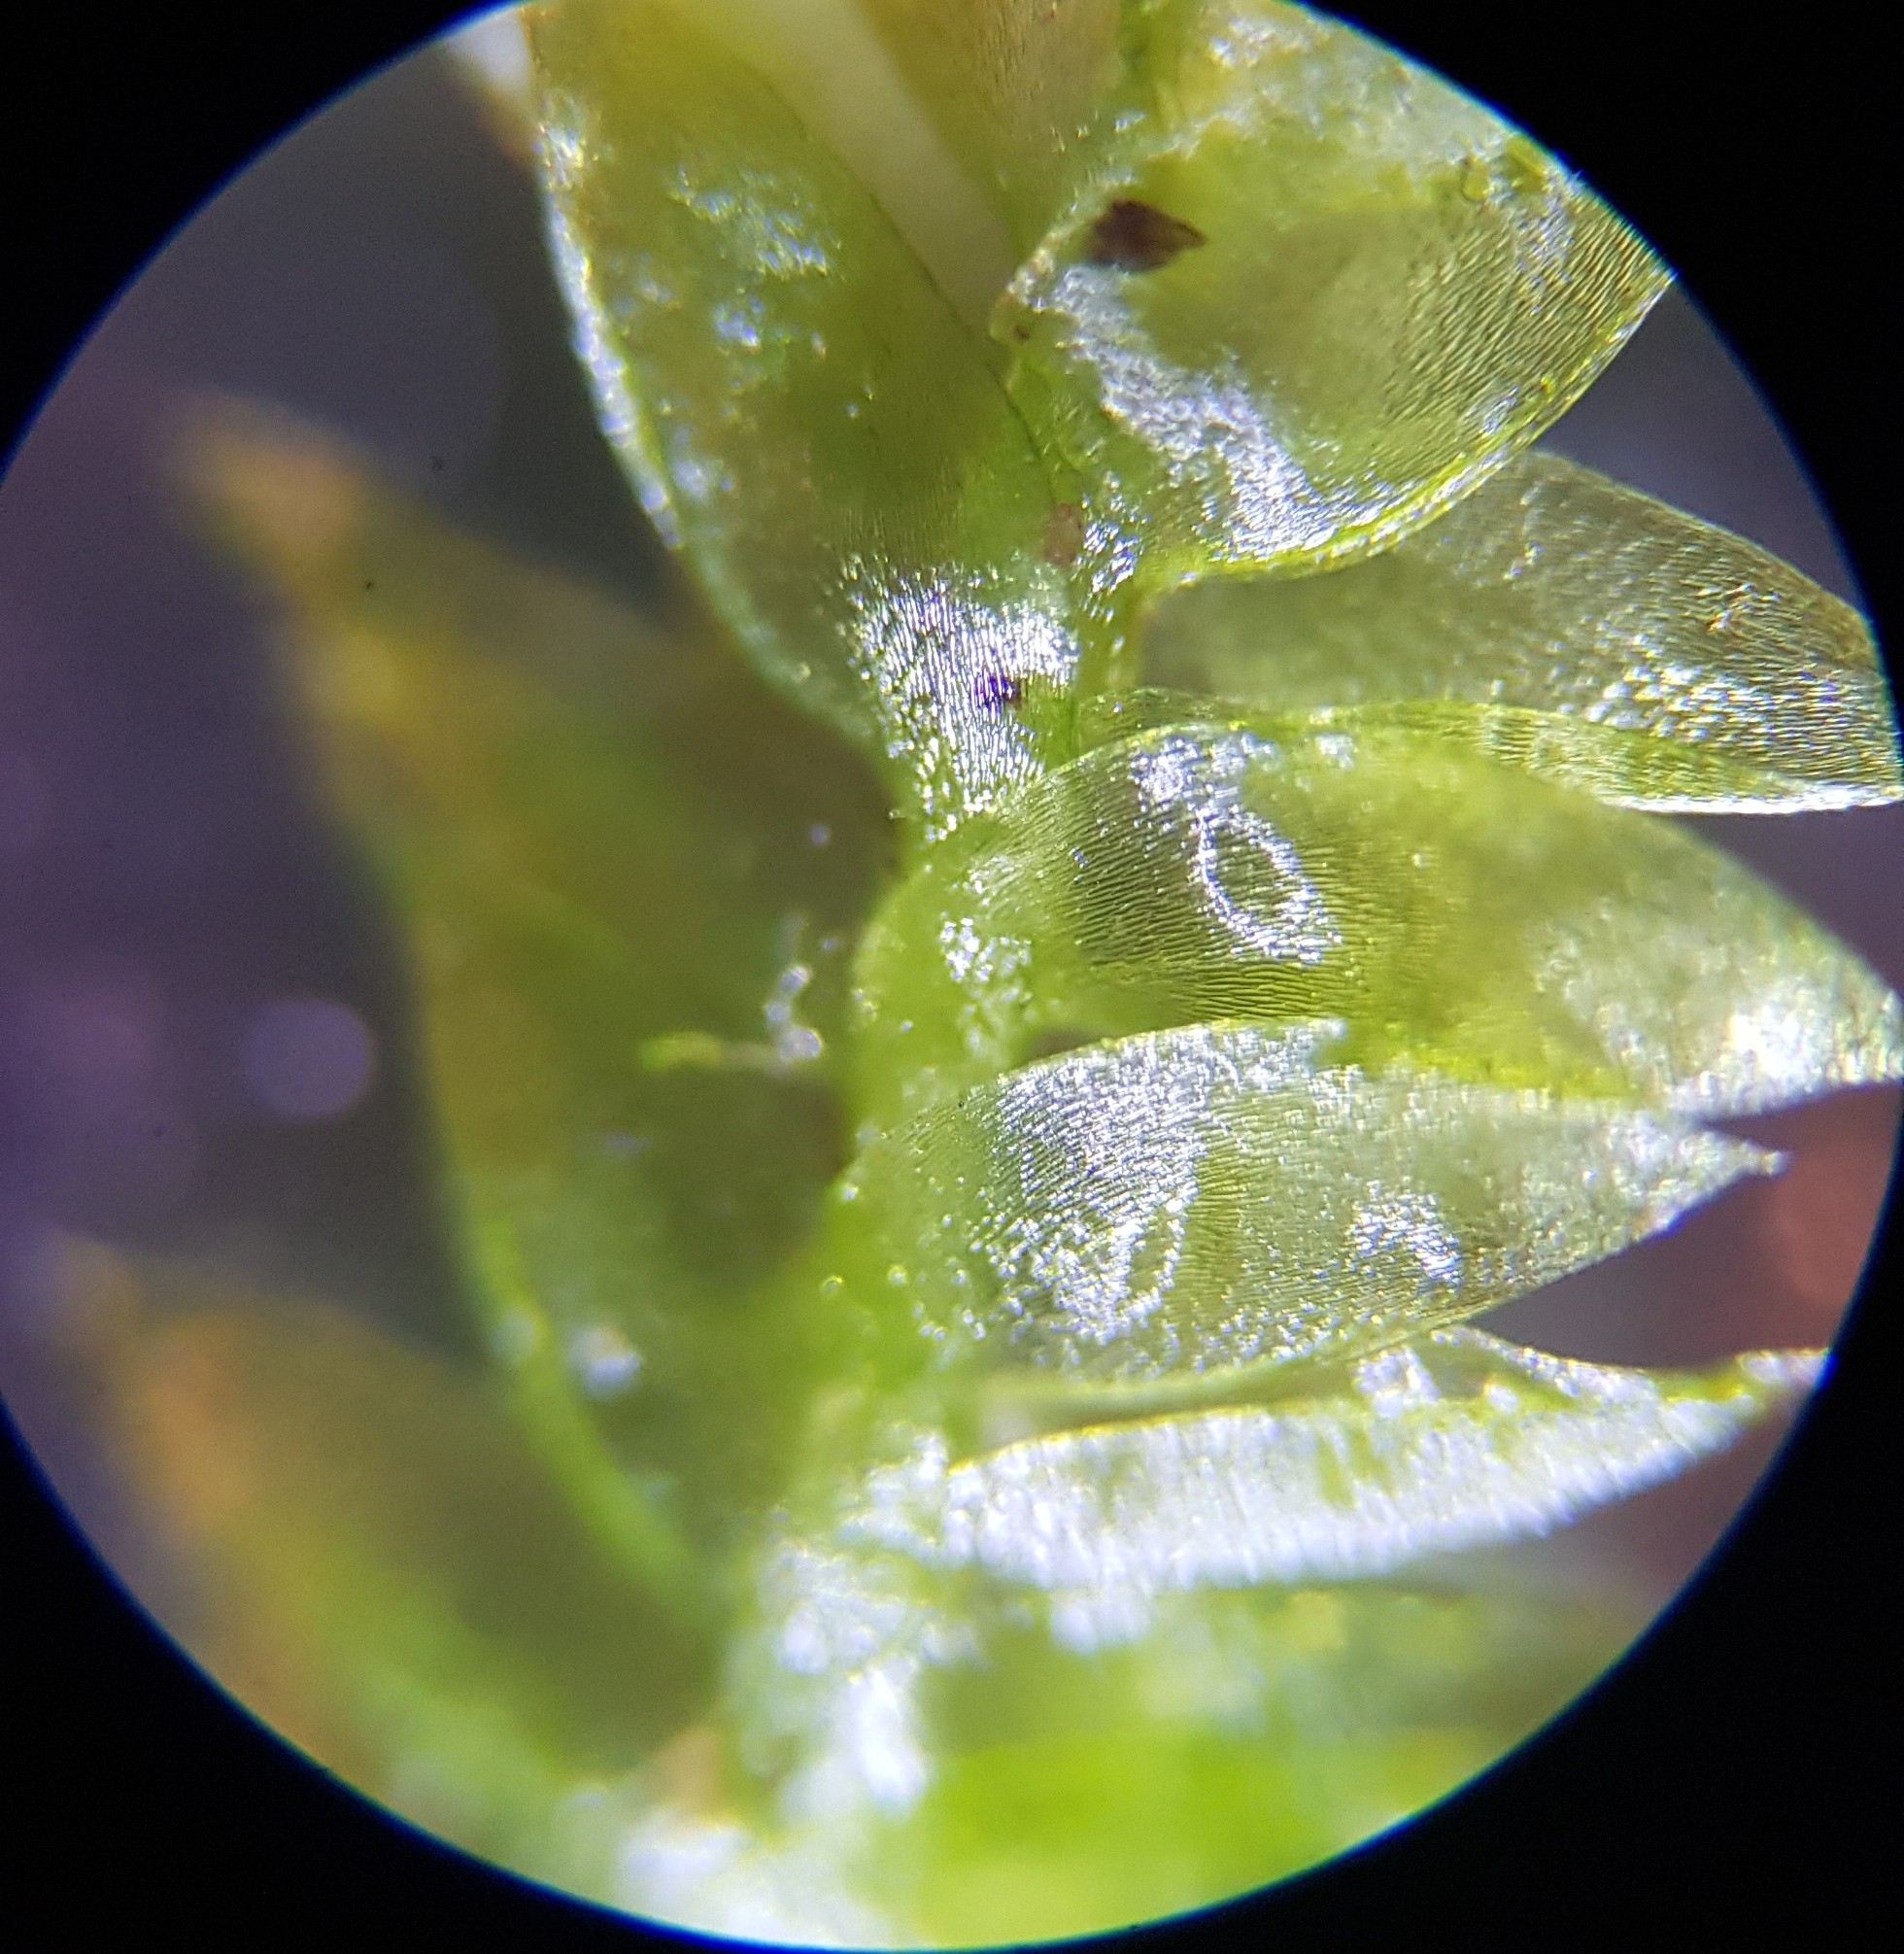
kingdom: Plantae
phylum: Bryophyta
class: Bryopsida
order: Hypnales
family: Plagiotheciaceae
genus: Plagiothecium
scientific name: Plagiothecium denticulatum
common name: Dented silk moss
